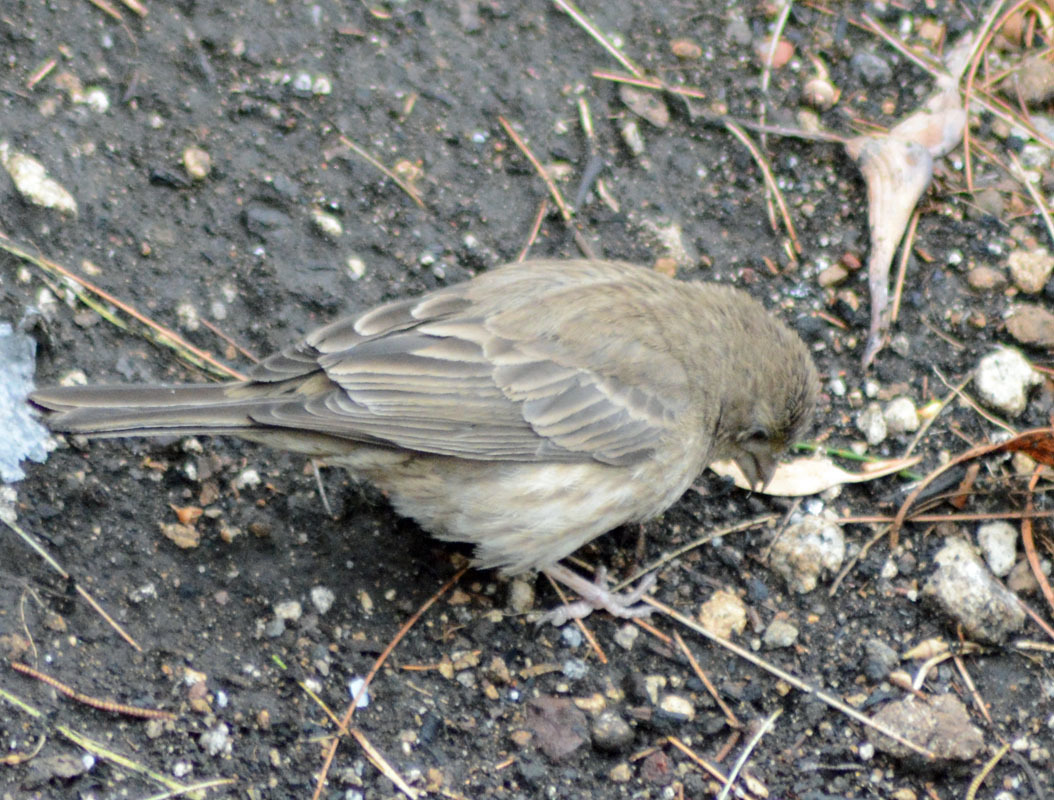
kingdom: Animalia
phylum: Chordata
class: Aves
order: Passeriformes
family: Fringillidae
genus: Haemorhous
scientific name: Haemorhous mexicanus
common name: House finch
